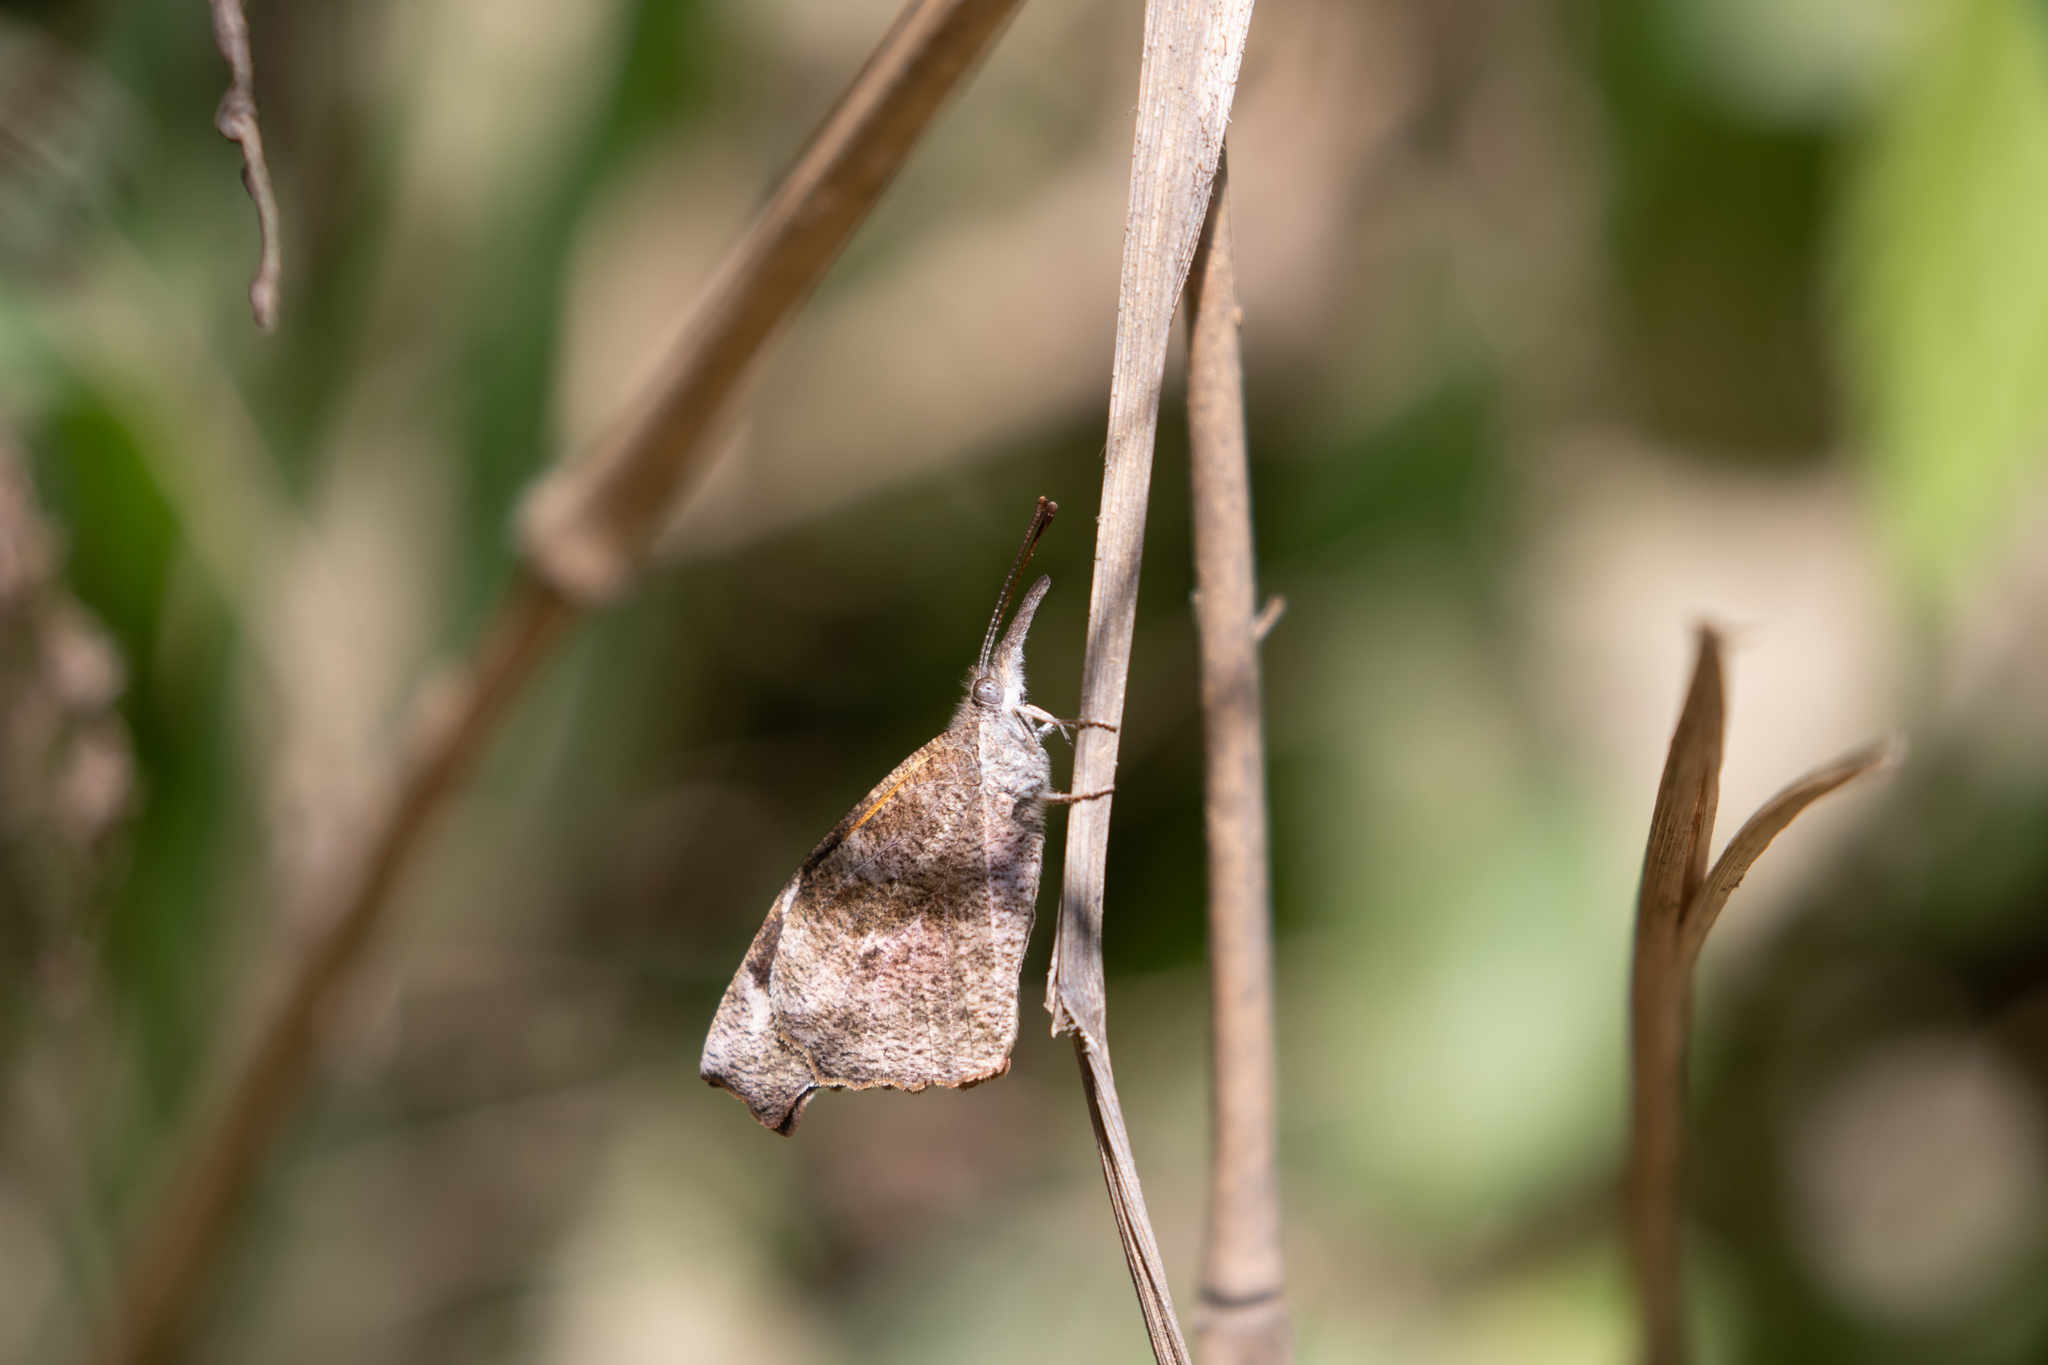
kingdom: Animalia
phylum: Arthropoda
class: Insecta
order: Lepidoptera
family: Nymphalidae
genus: Libytheana
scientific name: Libytheana carinenta
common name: American snout
